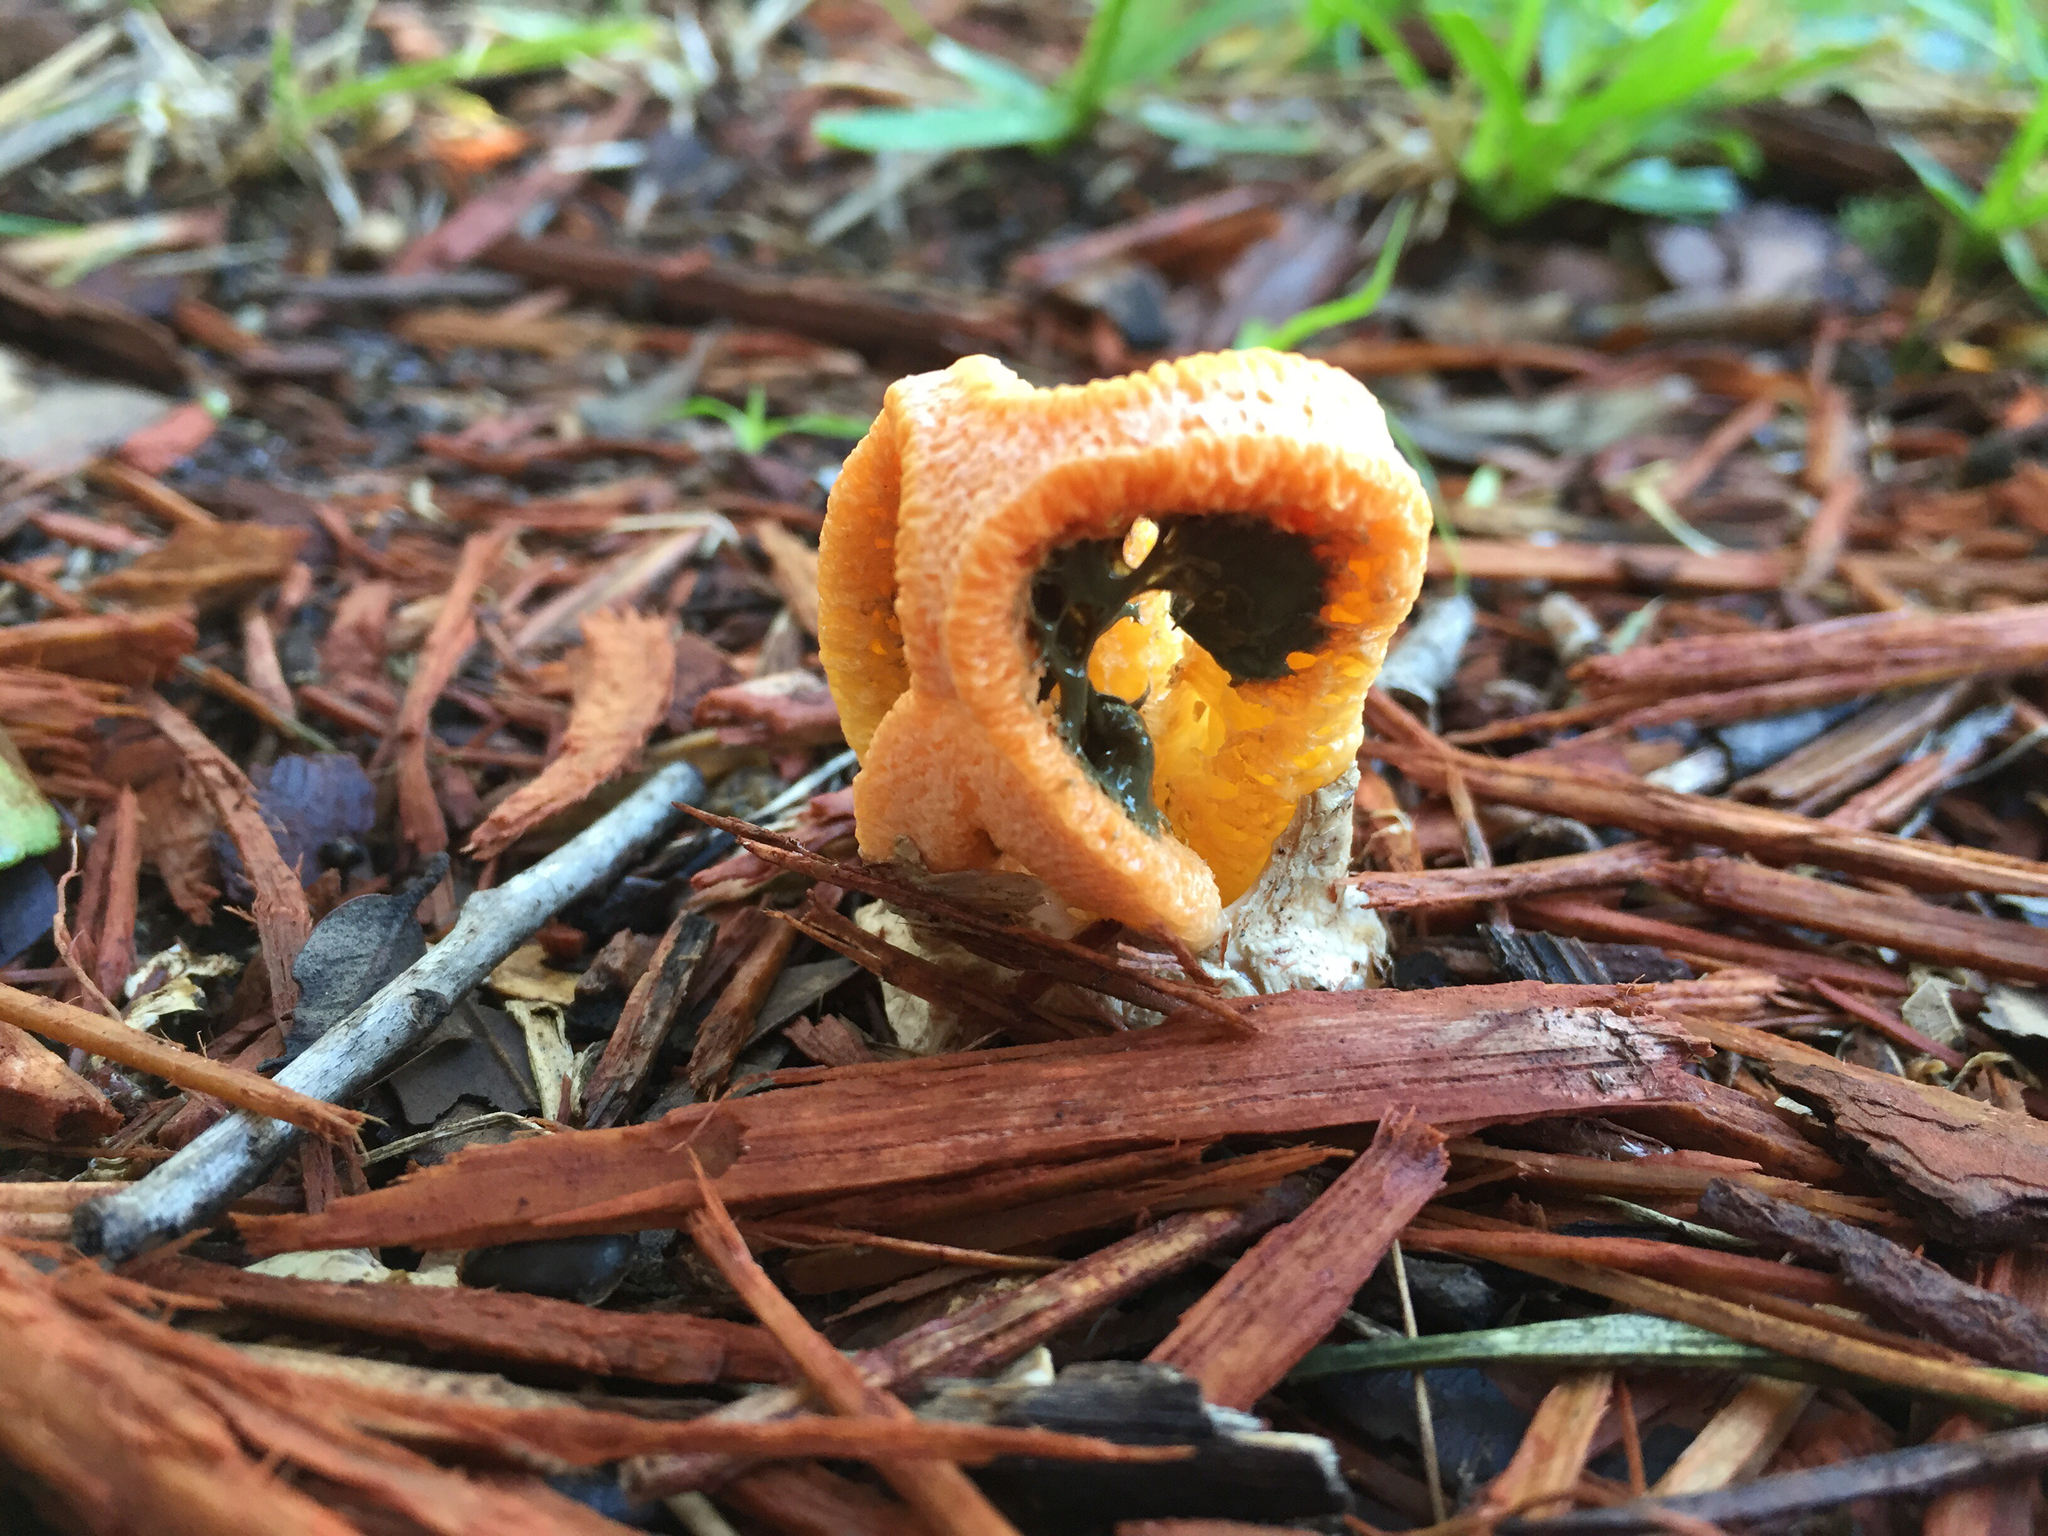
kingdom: Fungi
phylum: Basidiomycota
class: Agaricomycetes
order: Phallales
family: Phallaceae
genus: Clathrus
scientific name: Clathrus columnatus
